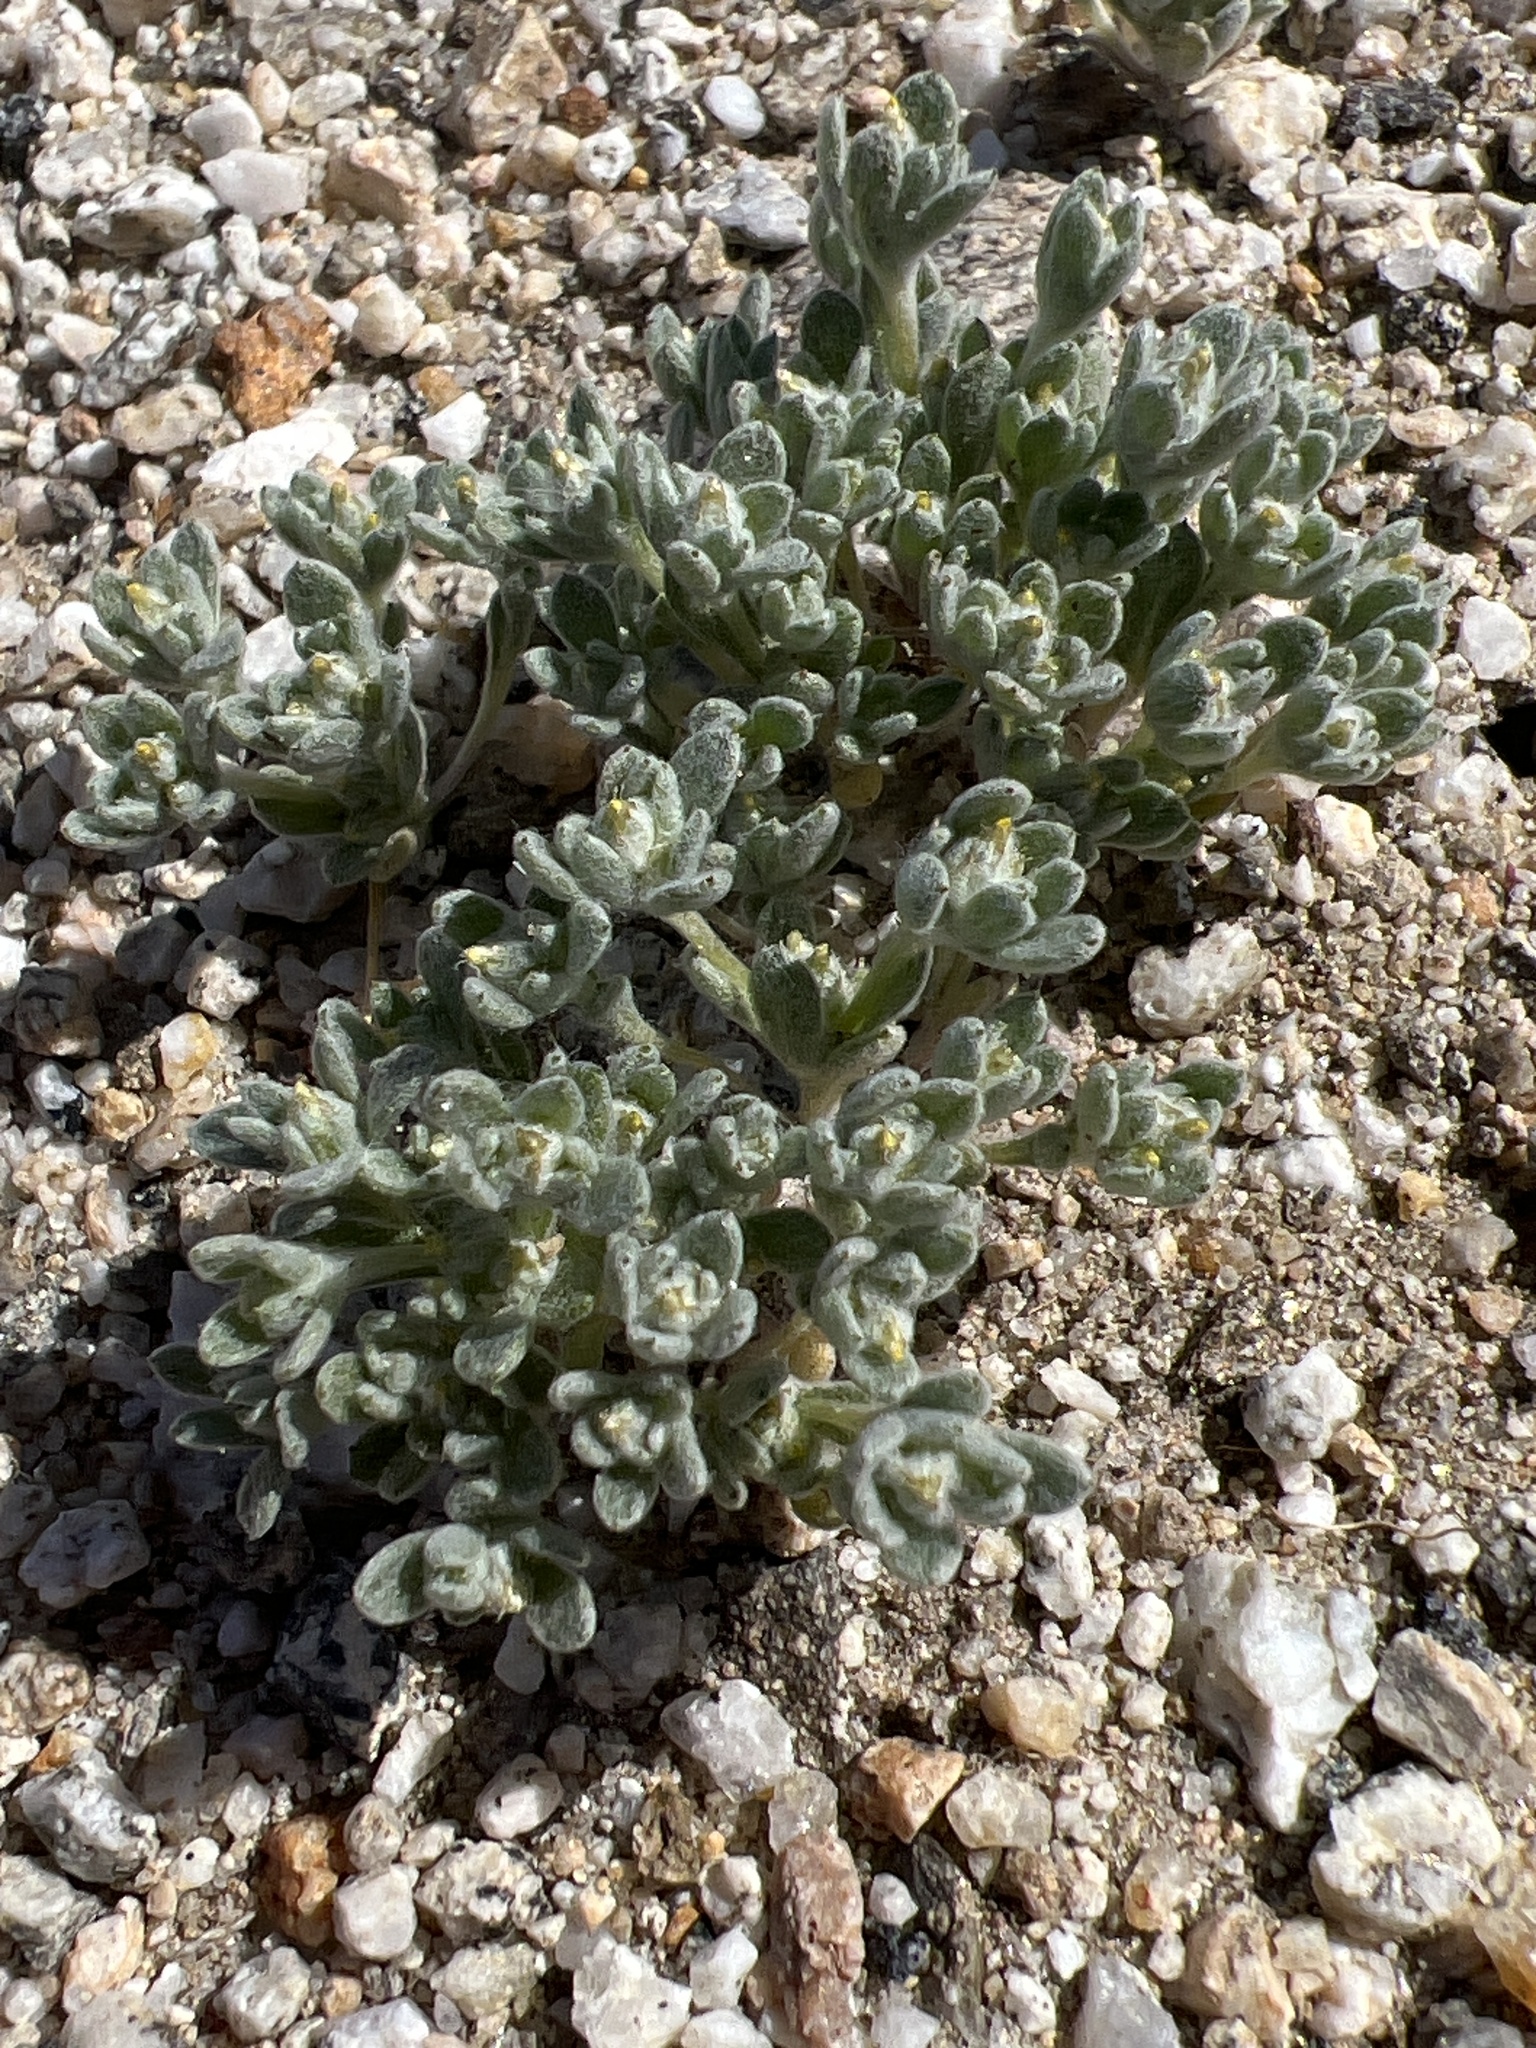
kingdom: Plantae
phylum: Tracheophyta
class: Magnoliopsida
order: Asterales
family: Asteraceae
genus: Logfia
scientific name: Logfia depressa
